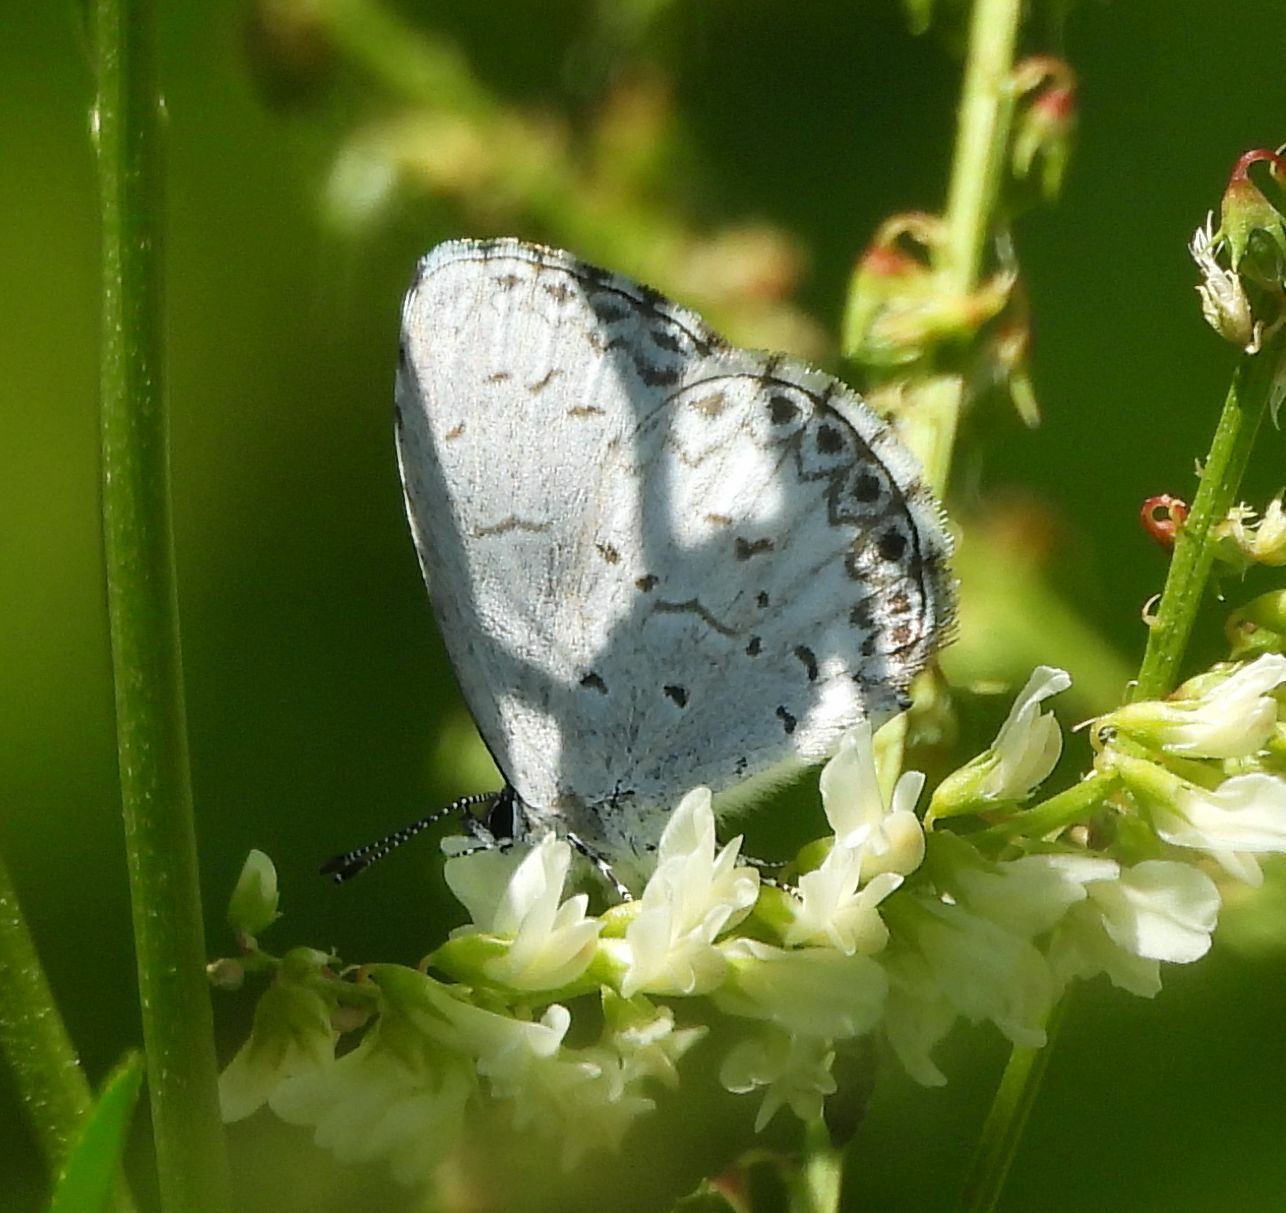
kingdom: Animalia
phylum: Arthropoda
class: Insecta
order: Lepidoptera
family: Lycaenidae
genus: Celastrina
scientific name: Celastrina lucia
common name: Lucia azure
